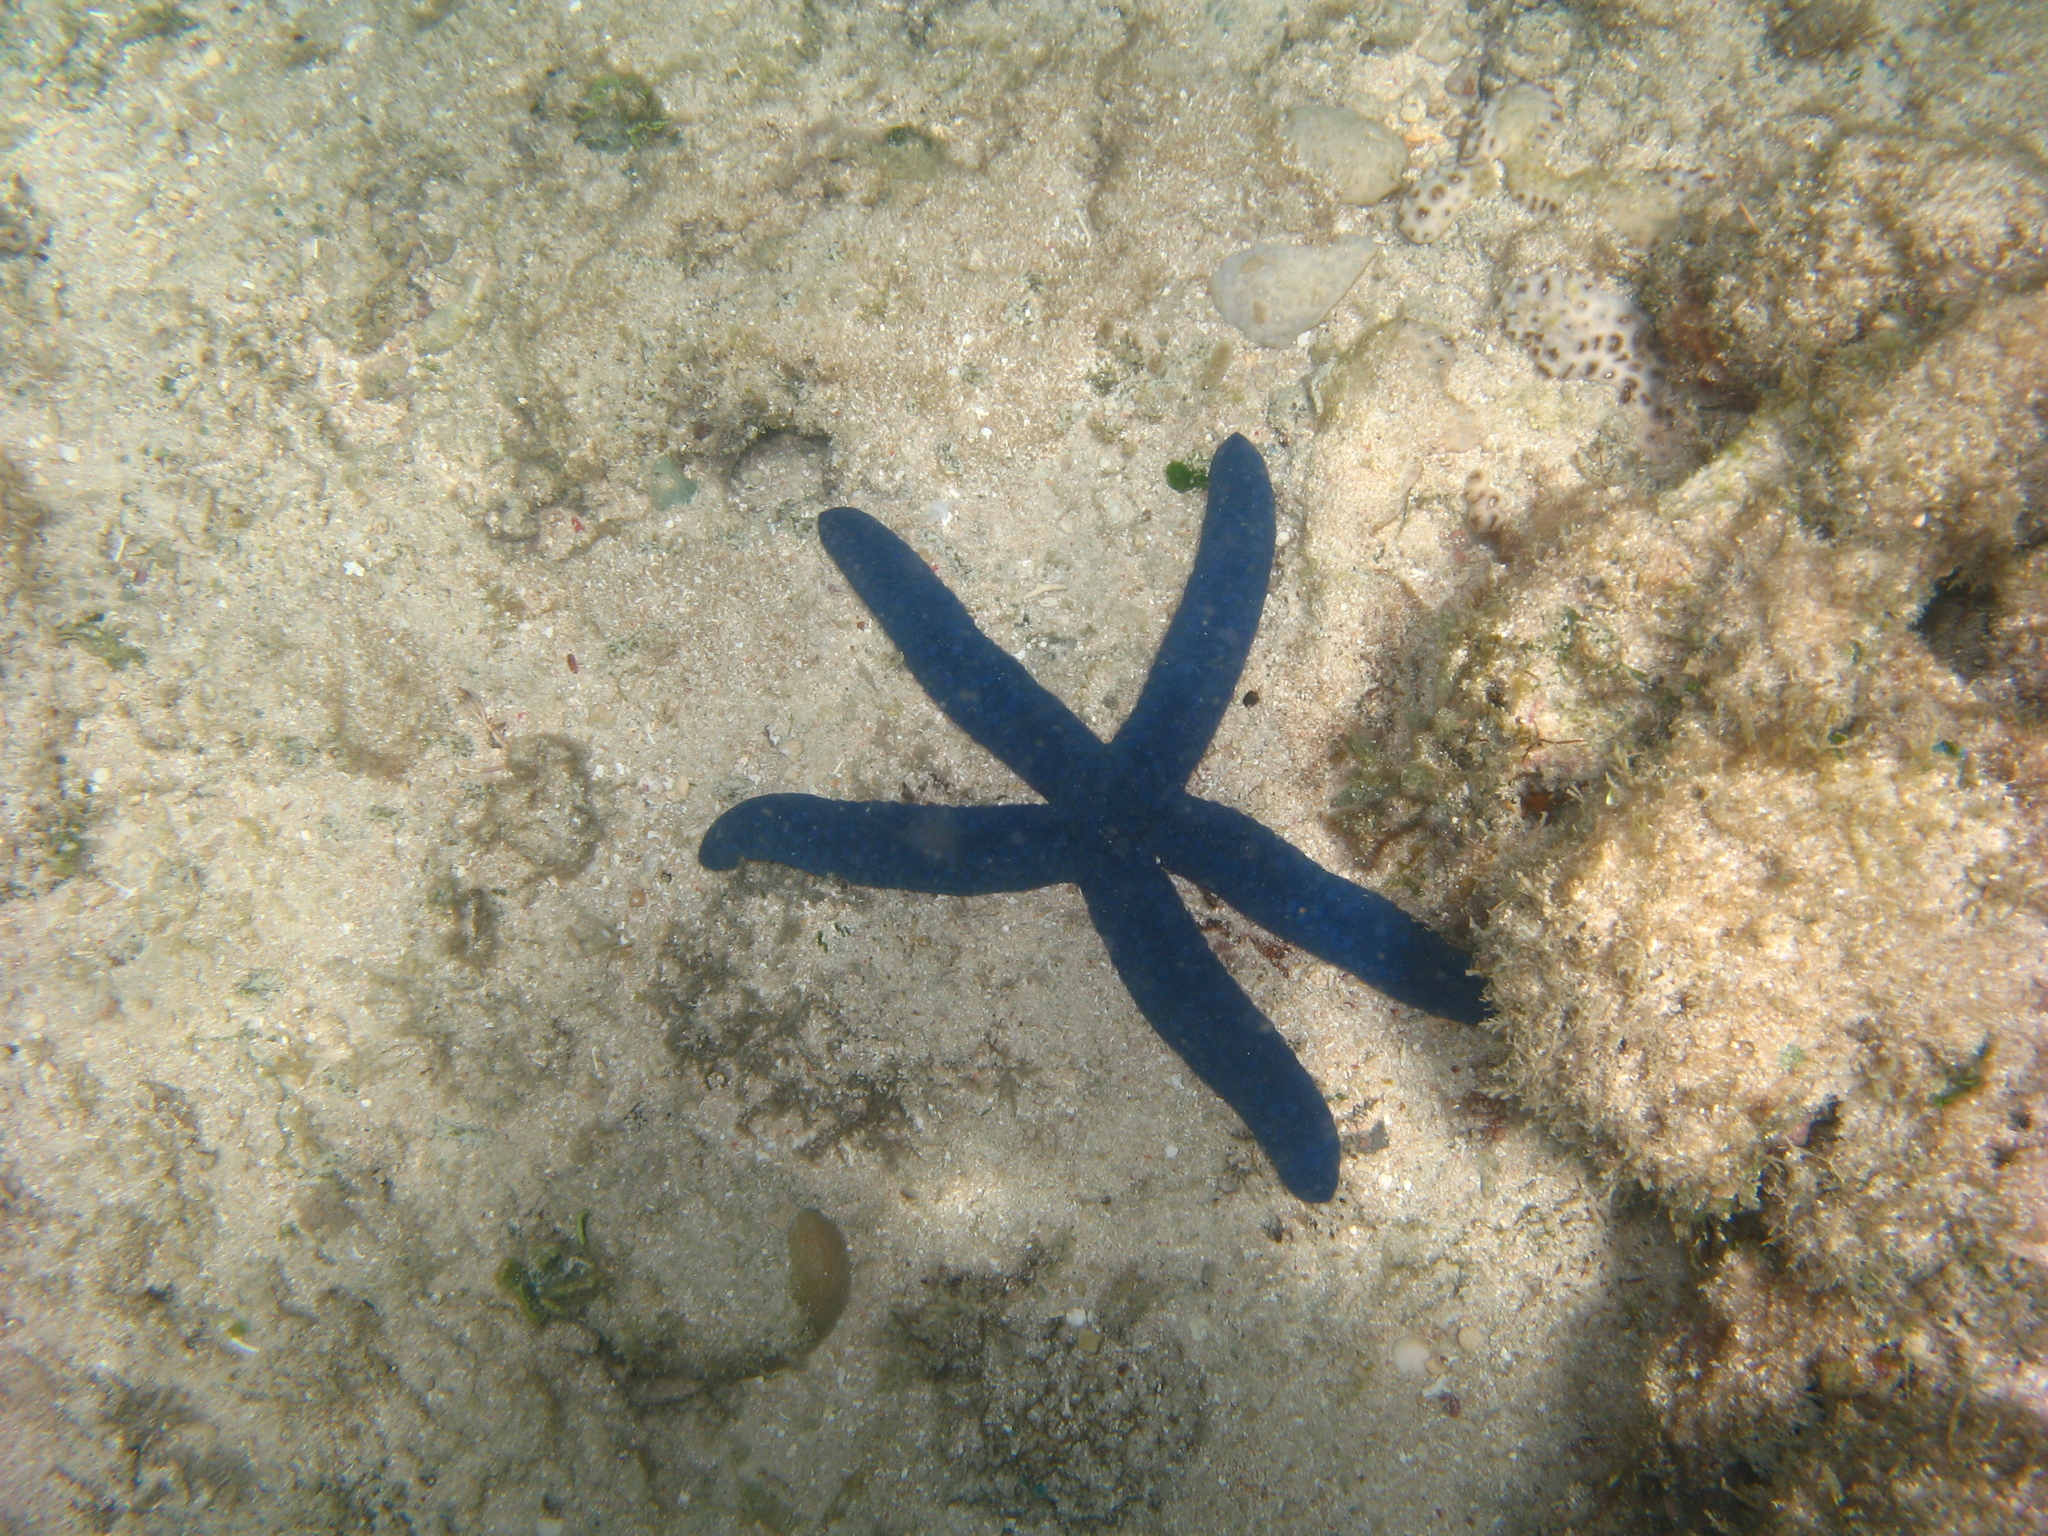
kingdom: Animalia
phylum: Echinodermata
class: Asteroidea
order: Valvatida
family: Ophidiasteridae
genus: Linckia
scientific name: Linckia laevigata
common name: Azure sea star
